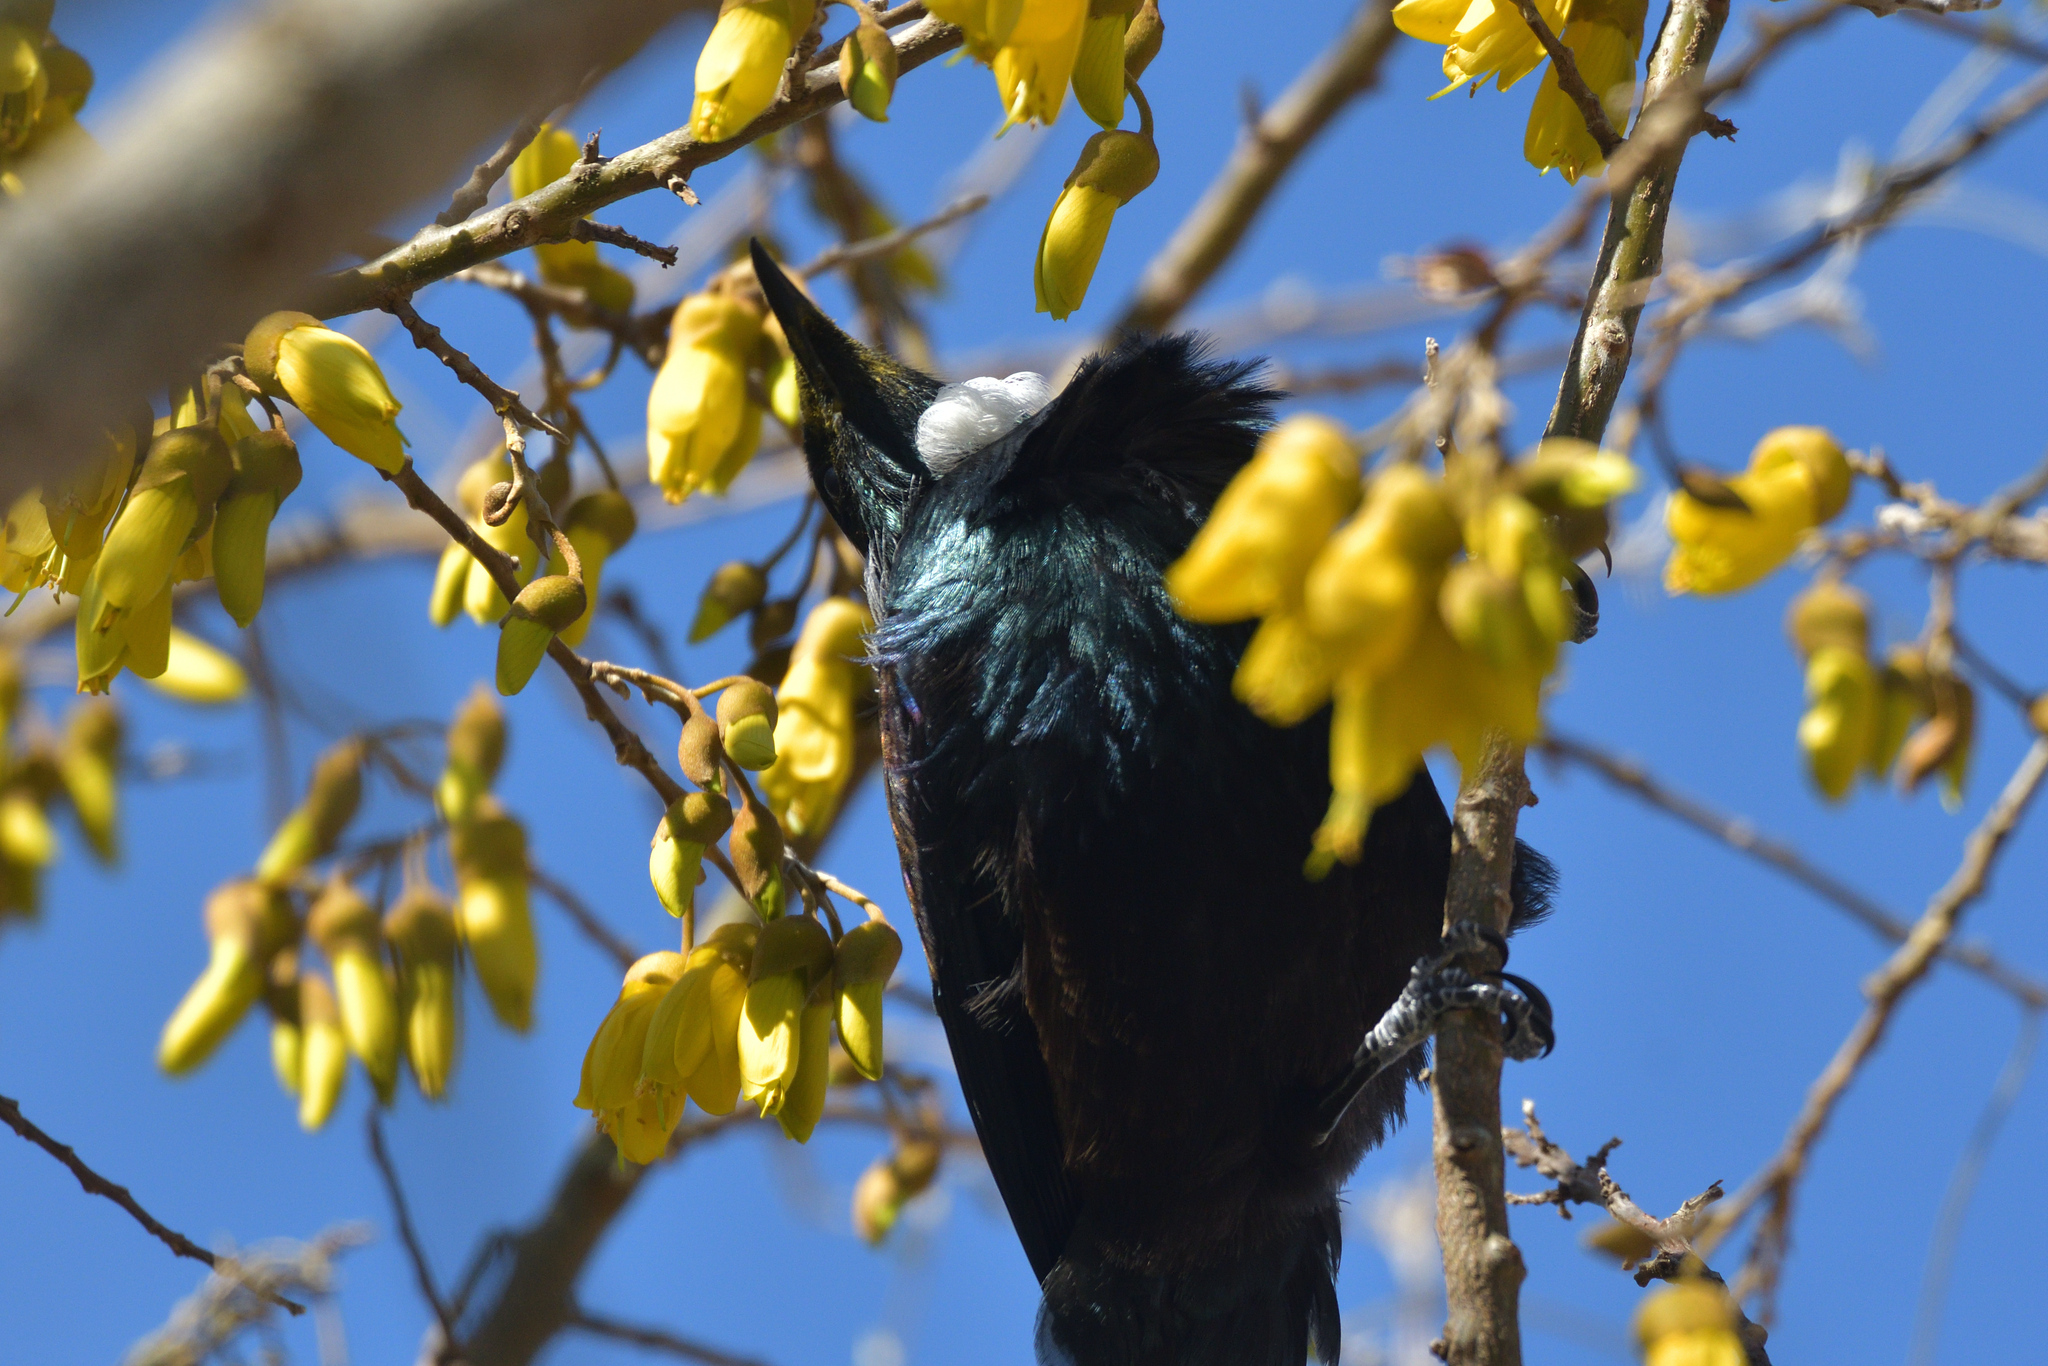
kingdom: Animalia
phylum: Chordata
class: Aves
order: Passeriformes
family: Meliphagidae
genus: Prosthemadera
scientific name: Prosthemadera novaeseelandiae
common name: Tui
